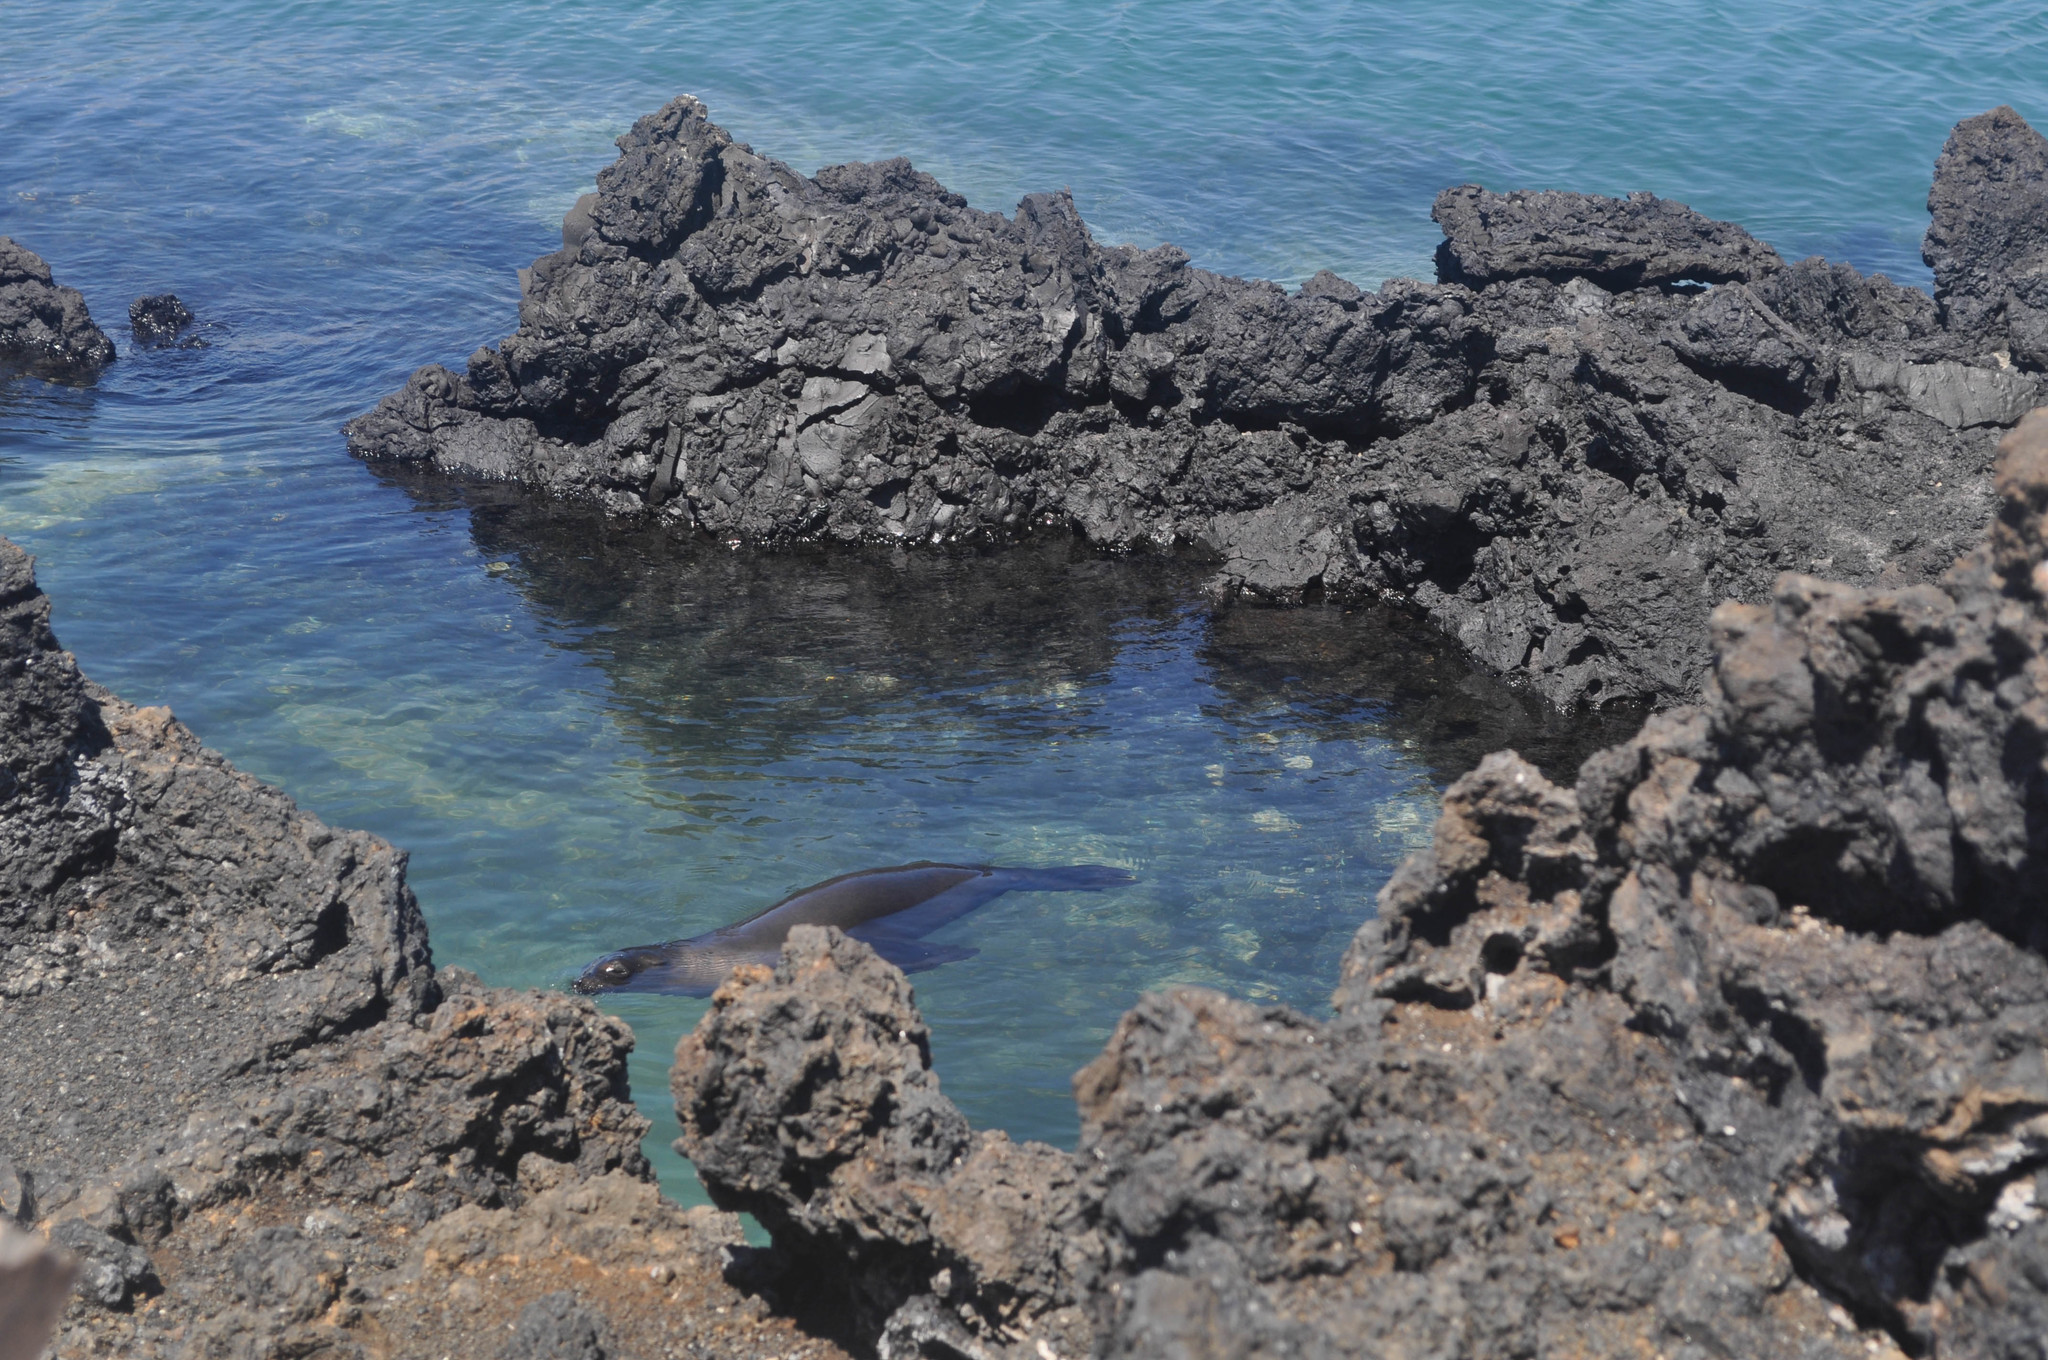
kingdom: Animalia
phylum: Chordata
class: Mammalia
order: Carnivora
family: Otariidae
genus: Zalophus
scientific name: Zalophus wollebaeki
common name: Galapagos sea lion
